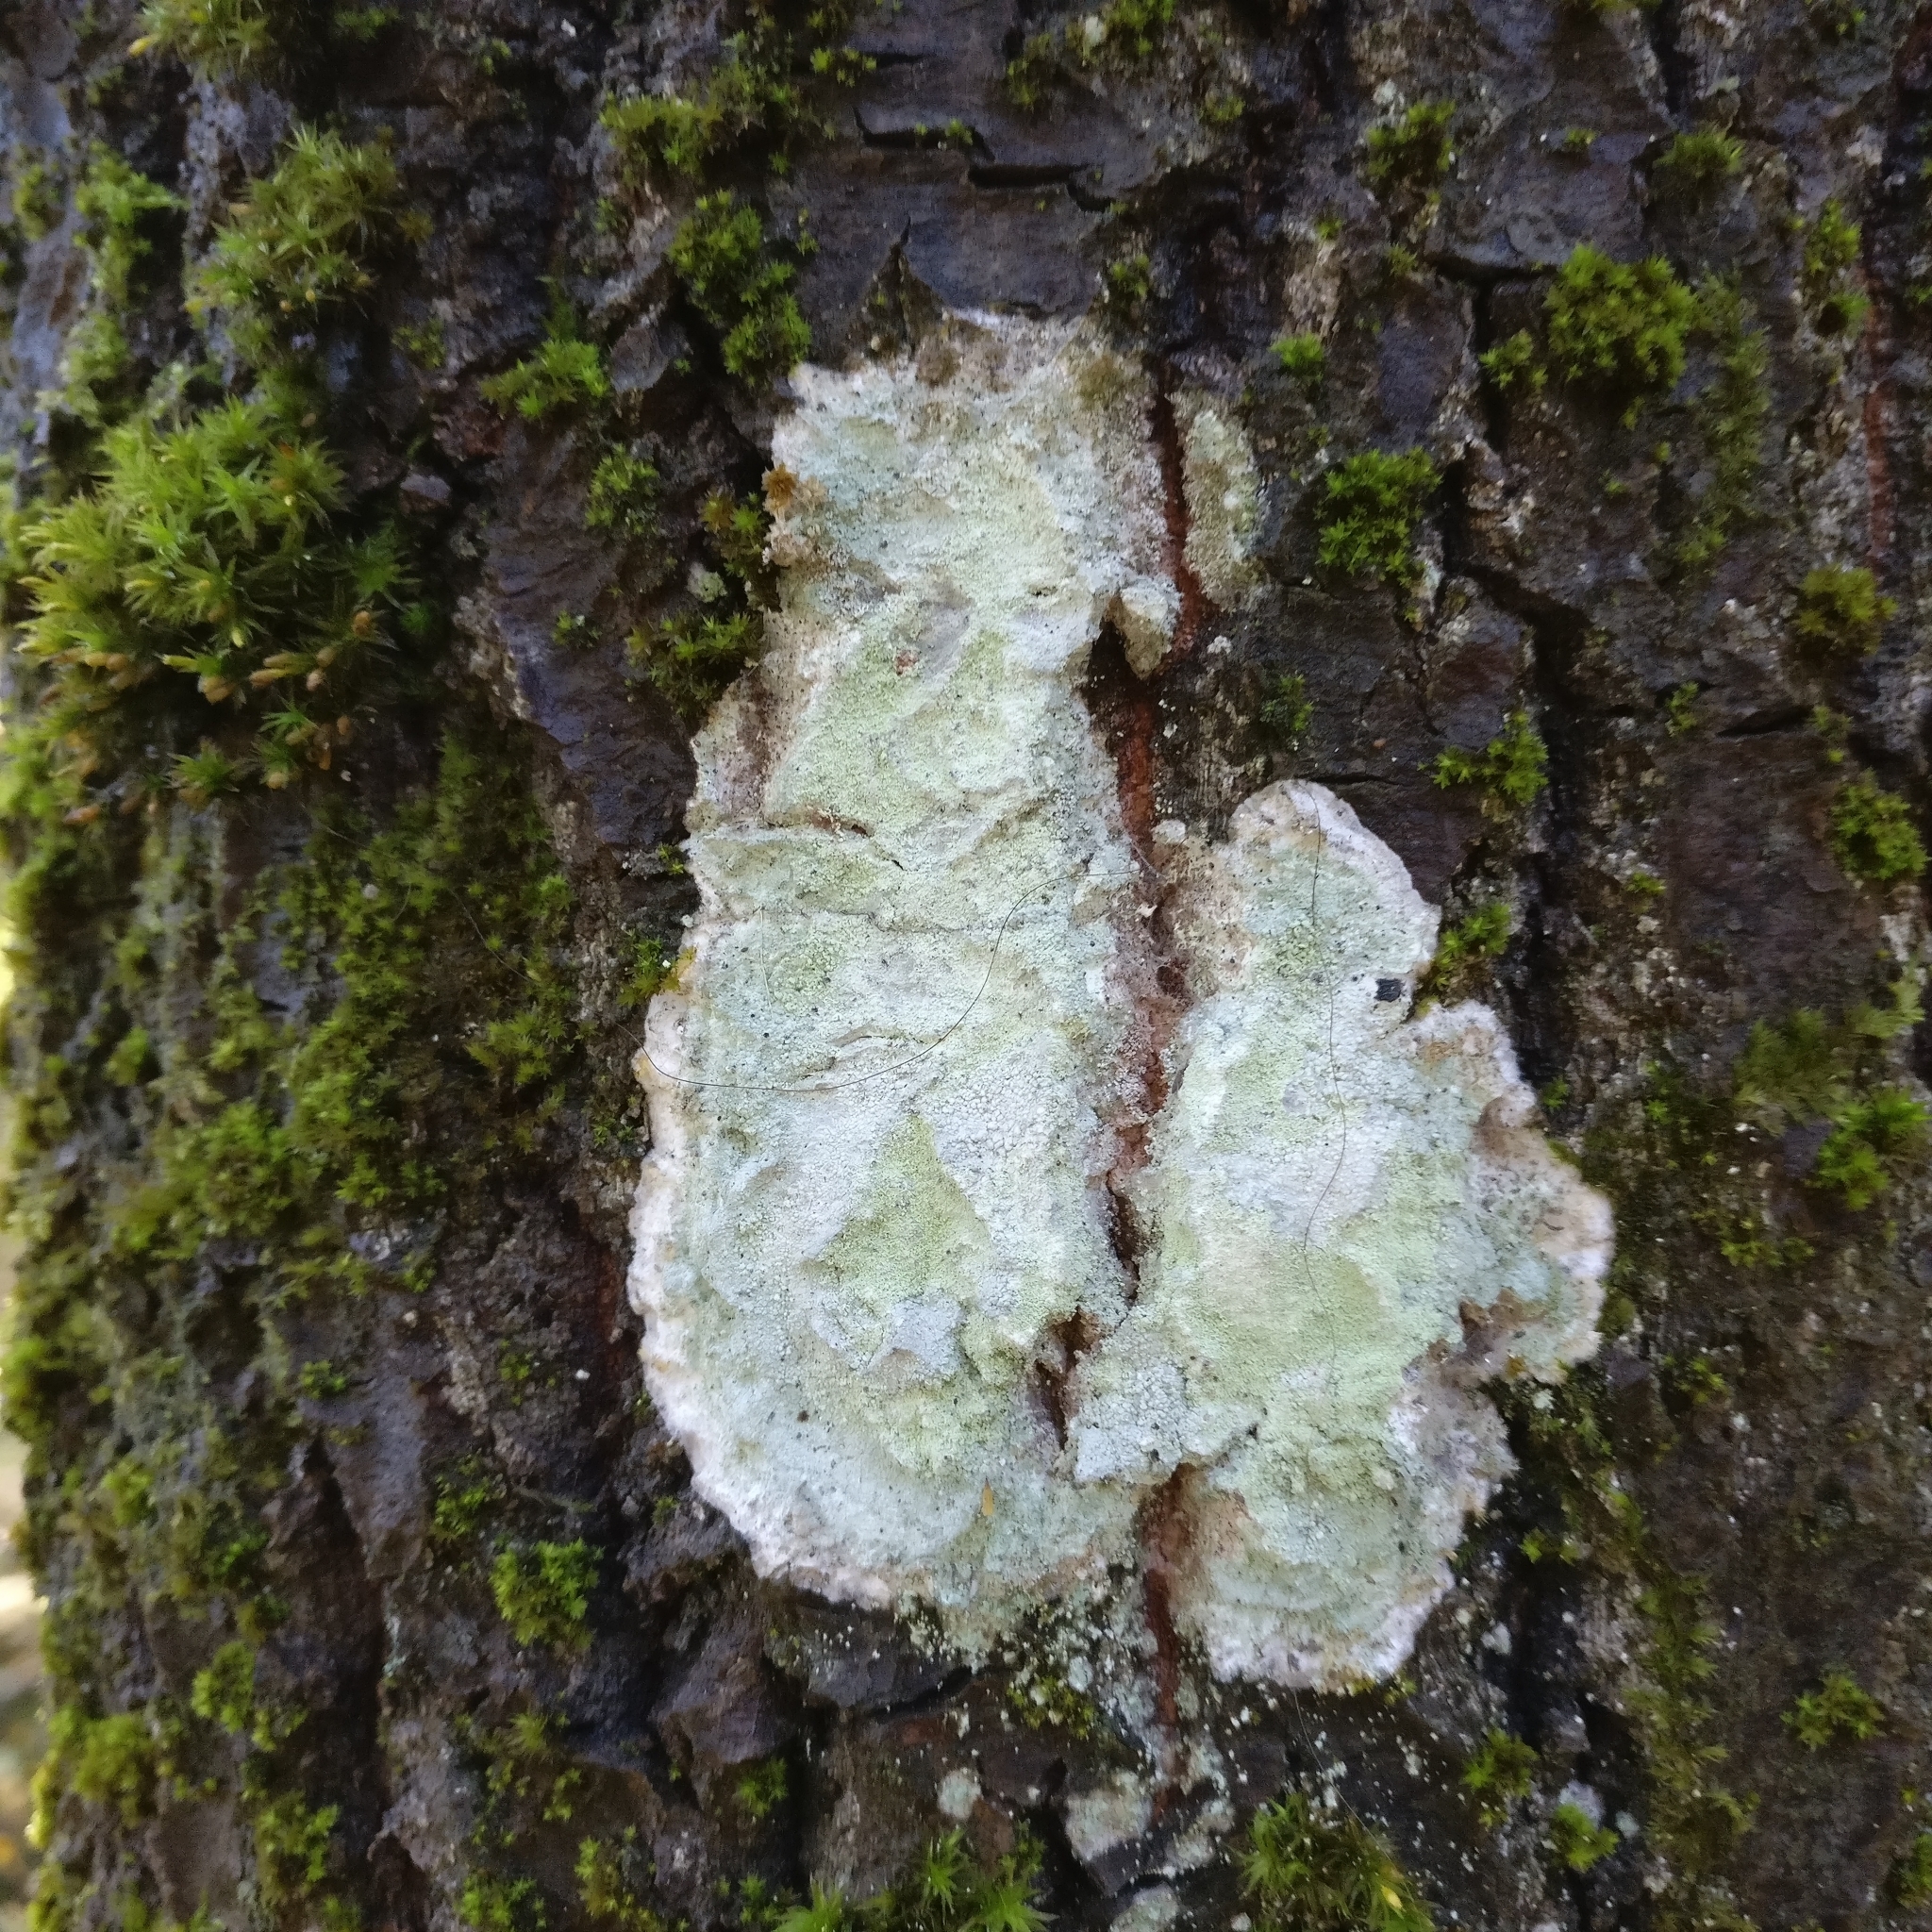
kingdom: Fungi
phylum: Ascomycota
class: Lecanoromycetes
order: Ostropales
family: Phlyctidaceae
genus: Phlyctis
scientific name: Phlyctis argena
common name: Whitewash lichen
